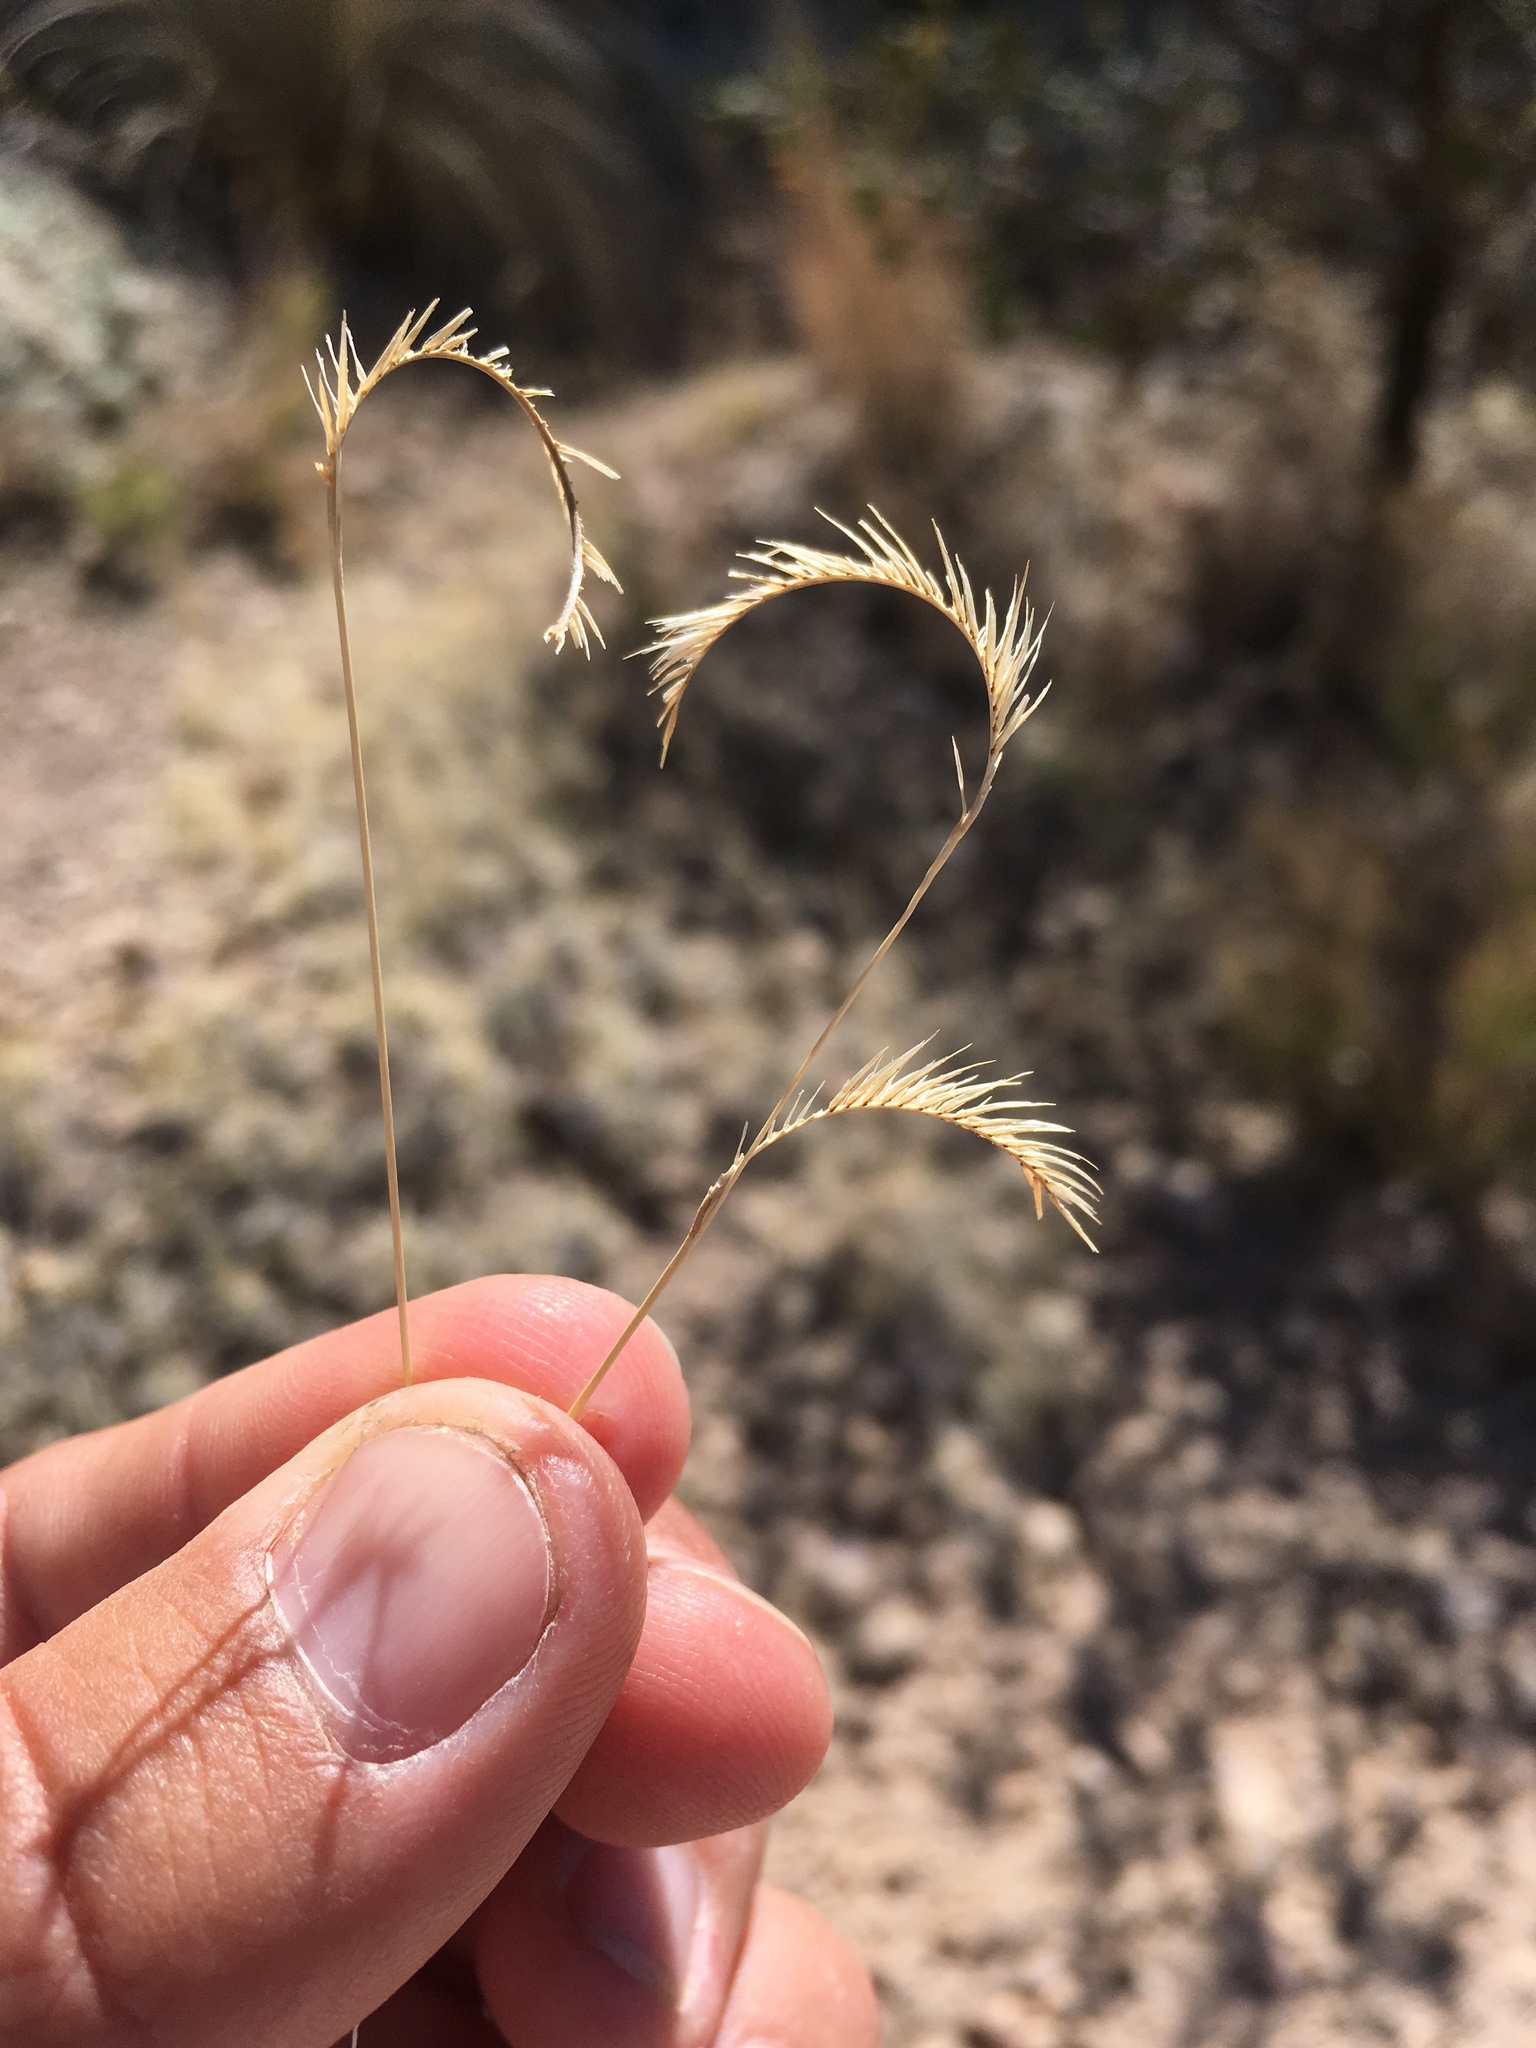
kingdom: Plantae
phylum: Tracheophyta
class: Liliopsida
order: Poales
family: Poaceae
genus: Bouteloua
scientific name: Bouteloua gracilis
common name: Blue grama
